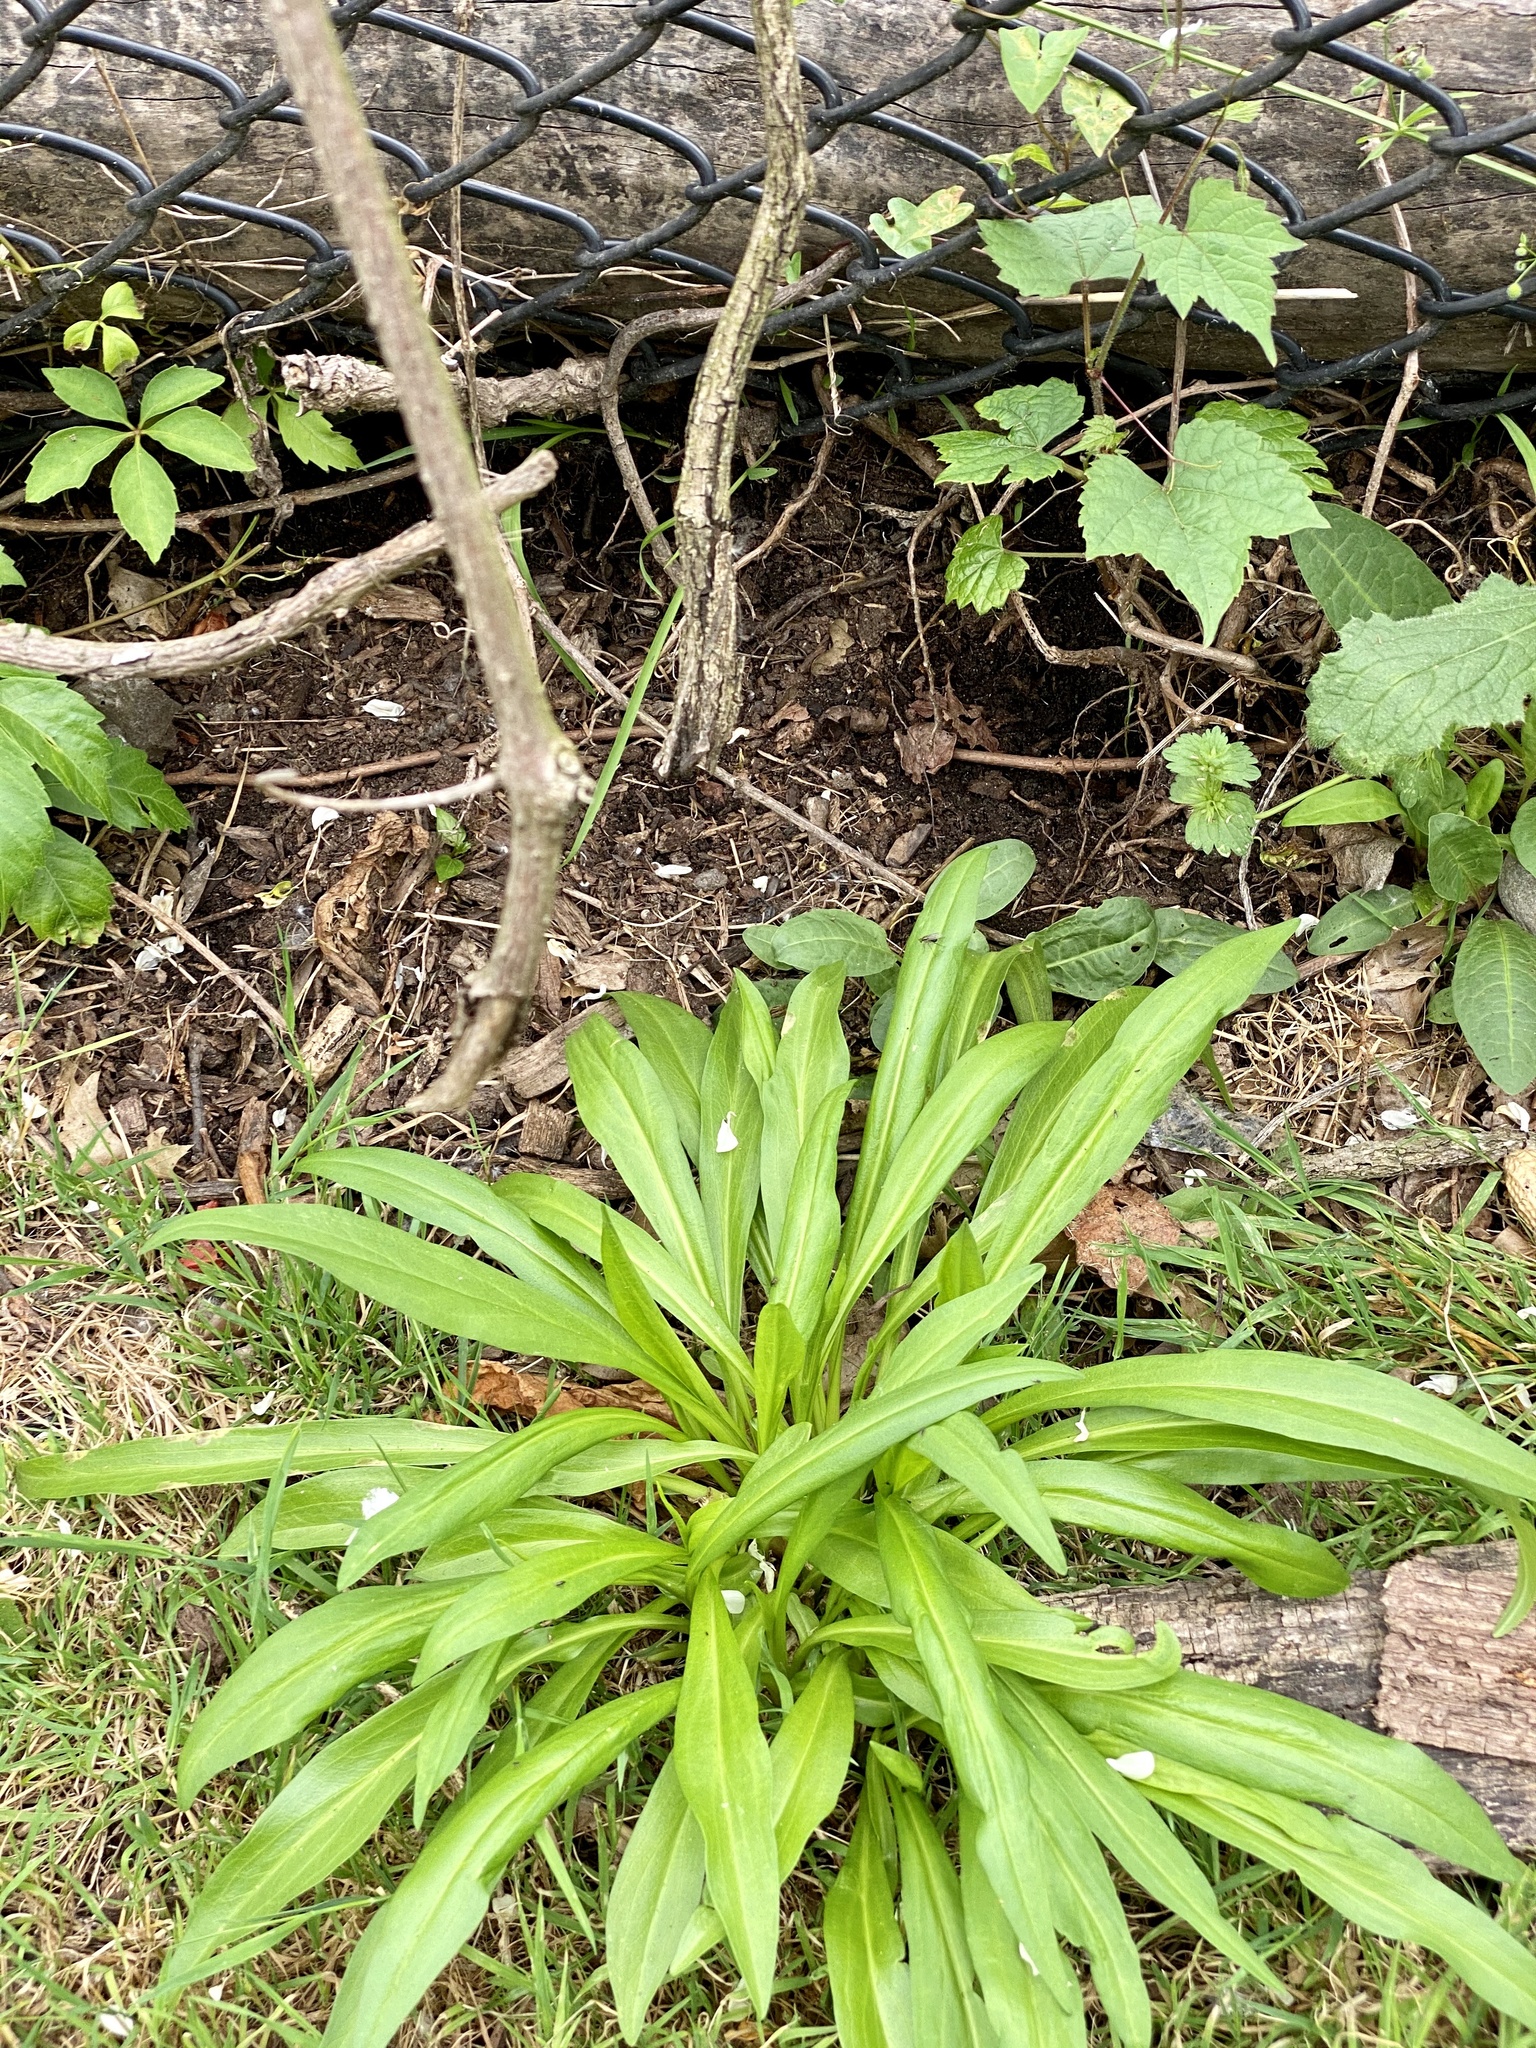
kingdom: Plantae
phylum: Tracheophyta
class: Magnoliopsida
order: Asterales
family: Asteraceae
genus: Solidago
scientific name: Solidago sempervirens
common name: Salt-marsh goldenrod
